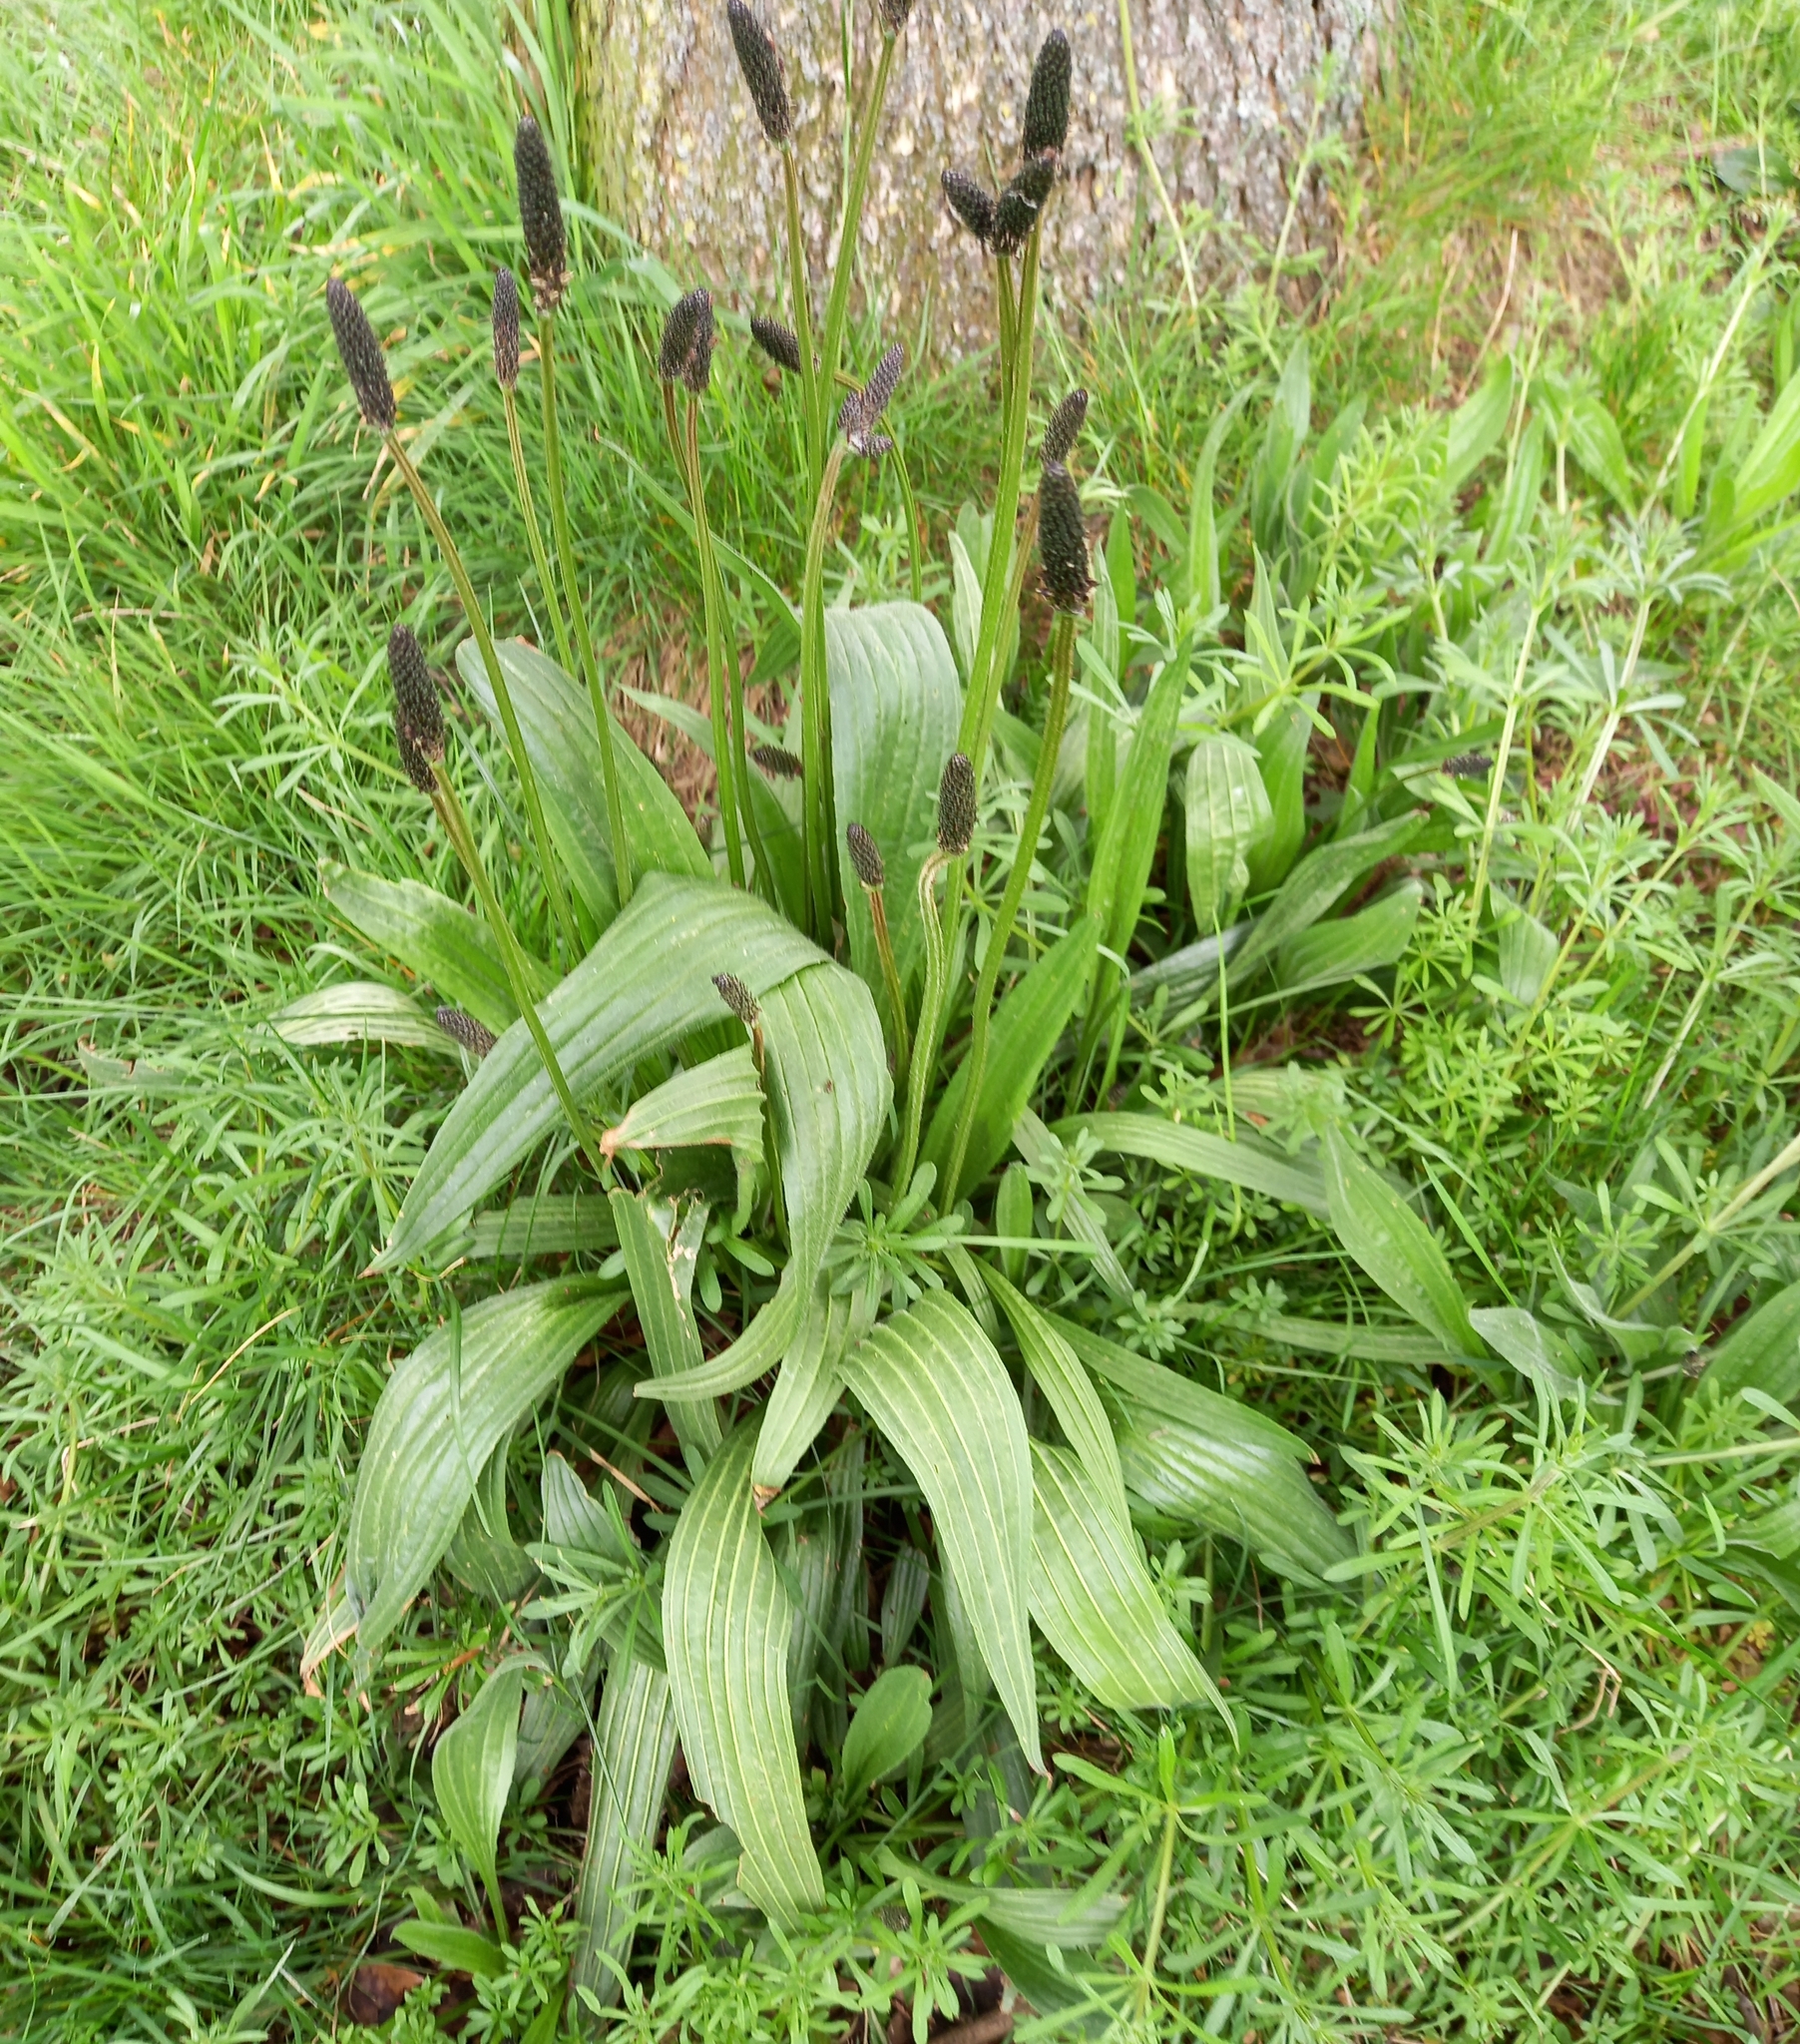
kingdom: Plantae
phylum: Tracheophyta
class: Magnoliopsida
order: Lamiales
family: Plantaginaceae
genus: Plantago
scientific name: Plantago lanceolata
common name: Ribwort plantain
